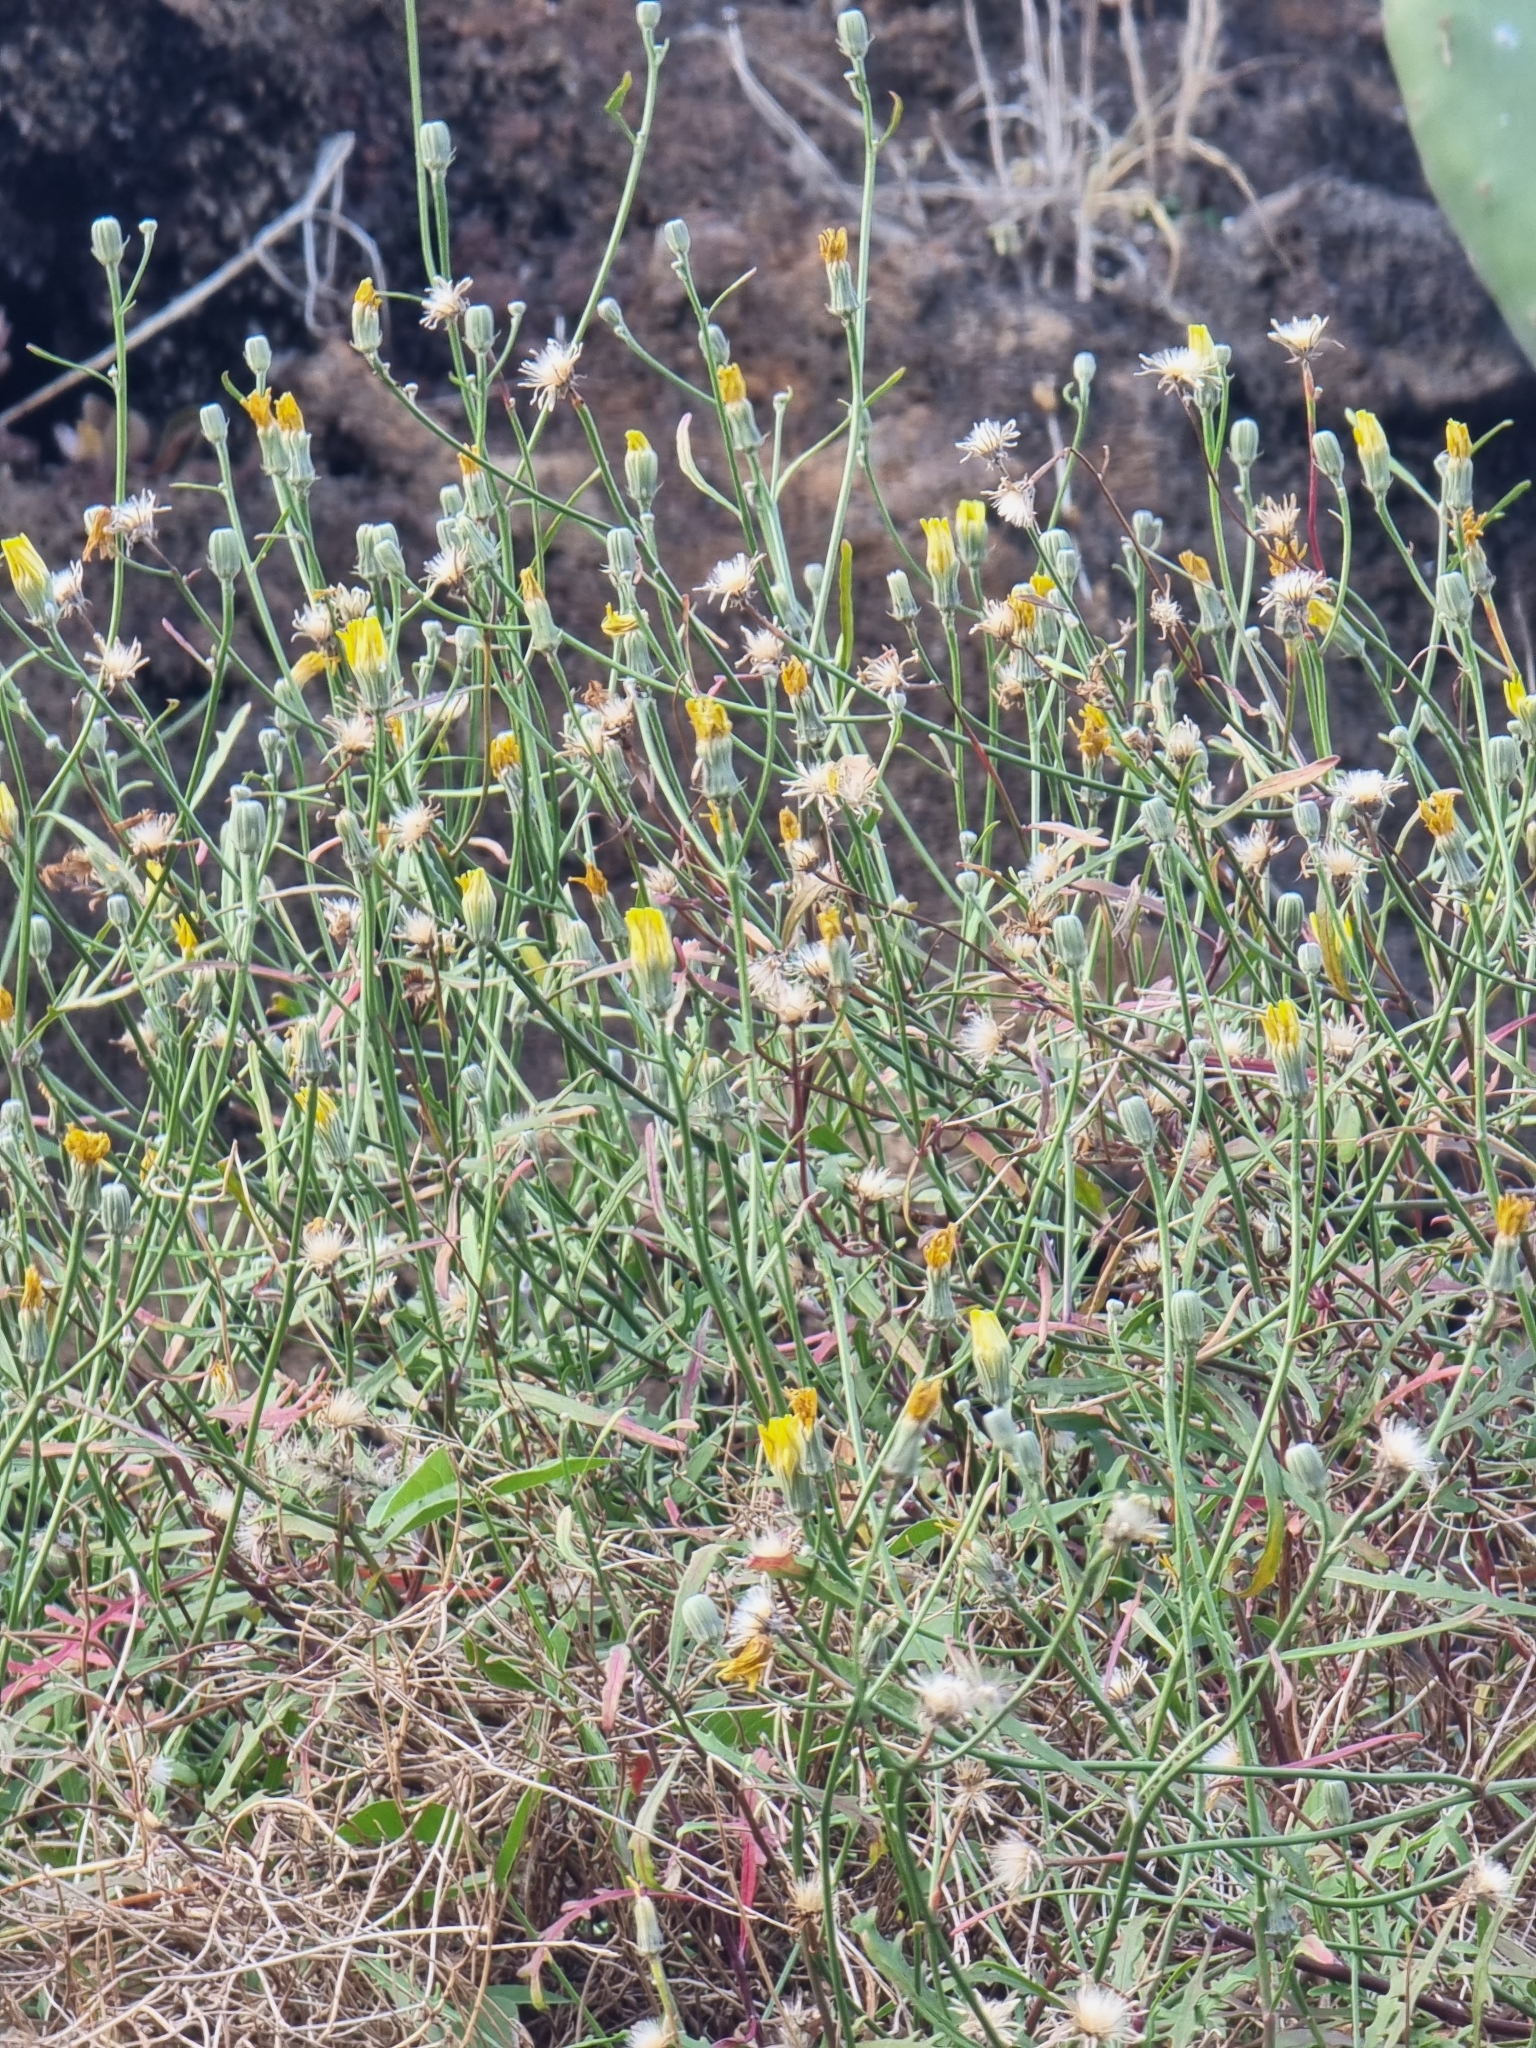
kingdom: Plantae
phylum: Tracheophyta
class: Magnoliopsida
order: Asterales
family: Asteraceae
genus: Tolpis
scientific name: Tolpis succulenta
